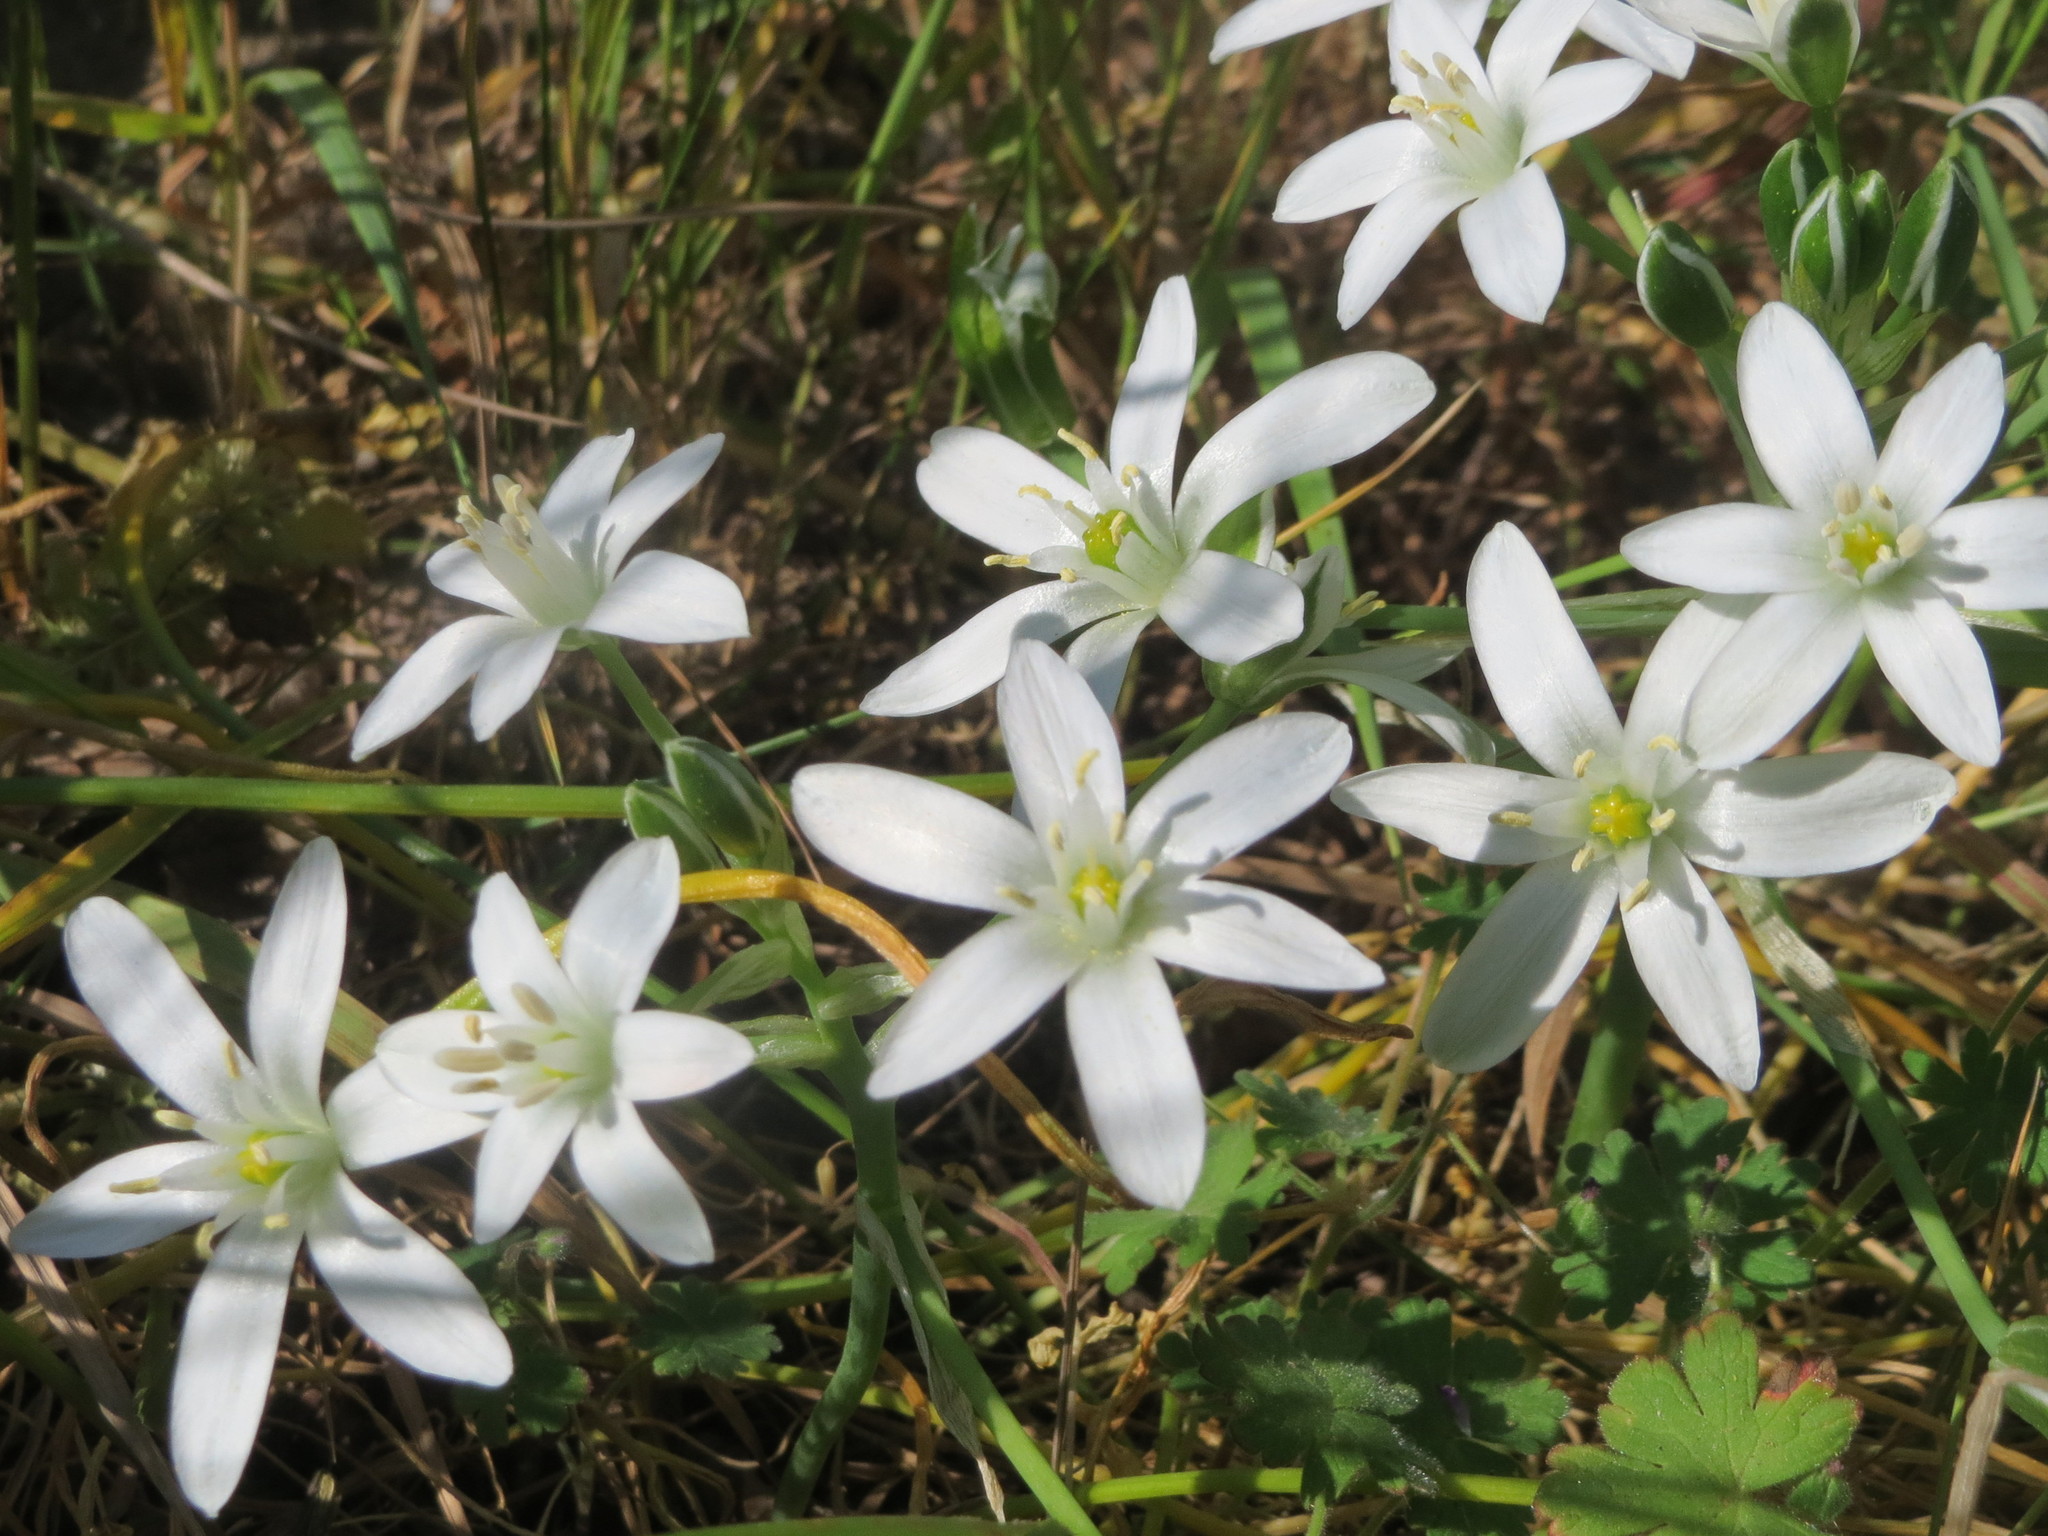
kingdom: Plantae
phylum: Tracheophyta
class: Liliopsida
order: Asparagales
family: Asparagaceae
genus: Ornithogalum
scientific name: Ornithogalum umbellatum
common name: Garden star-of-bethlehem
